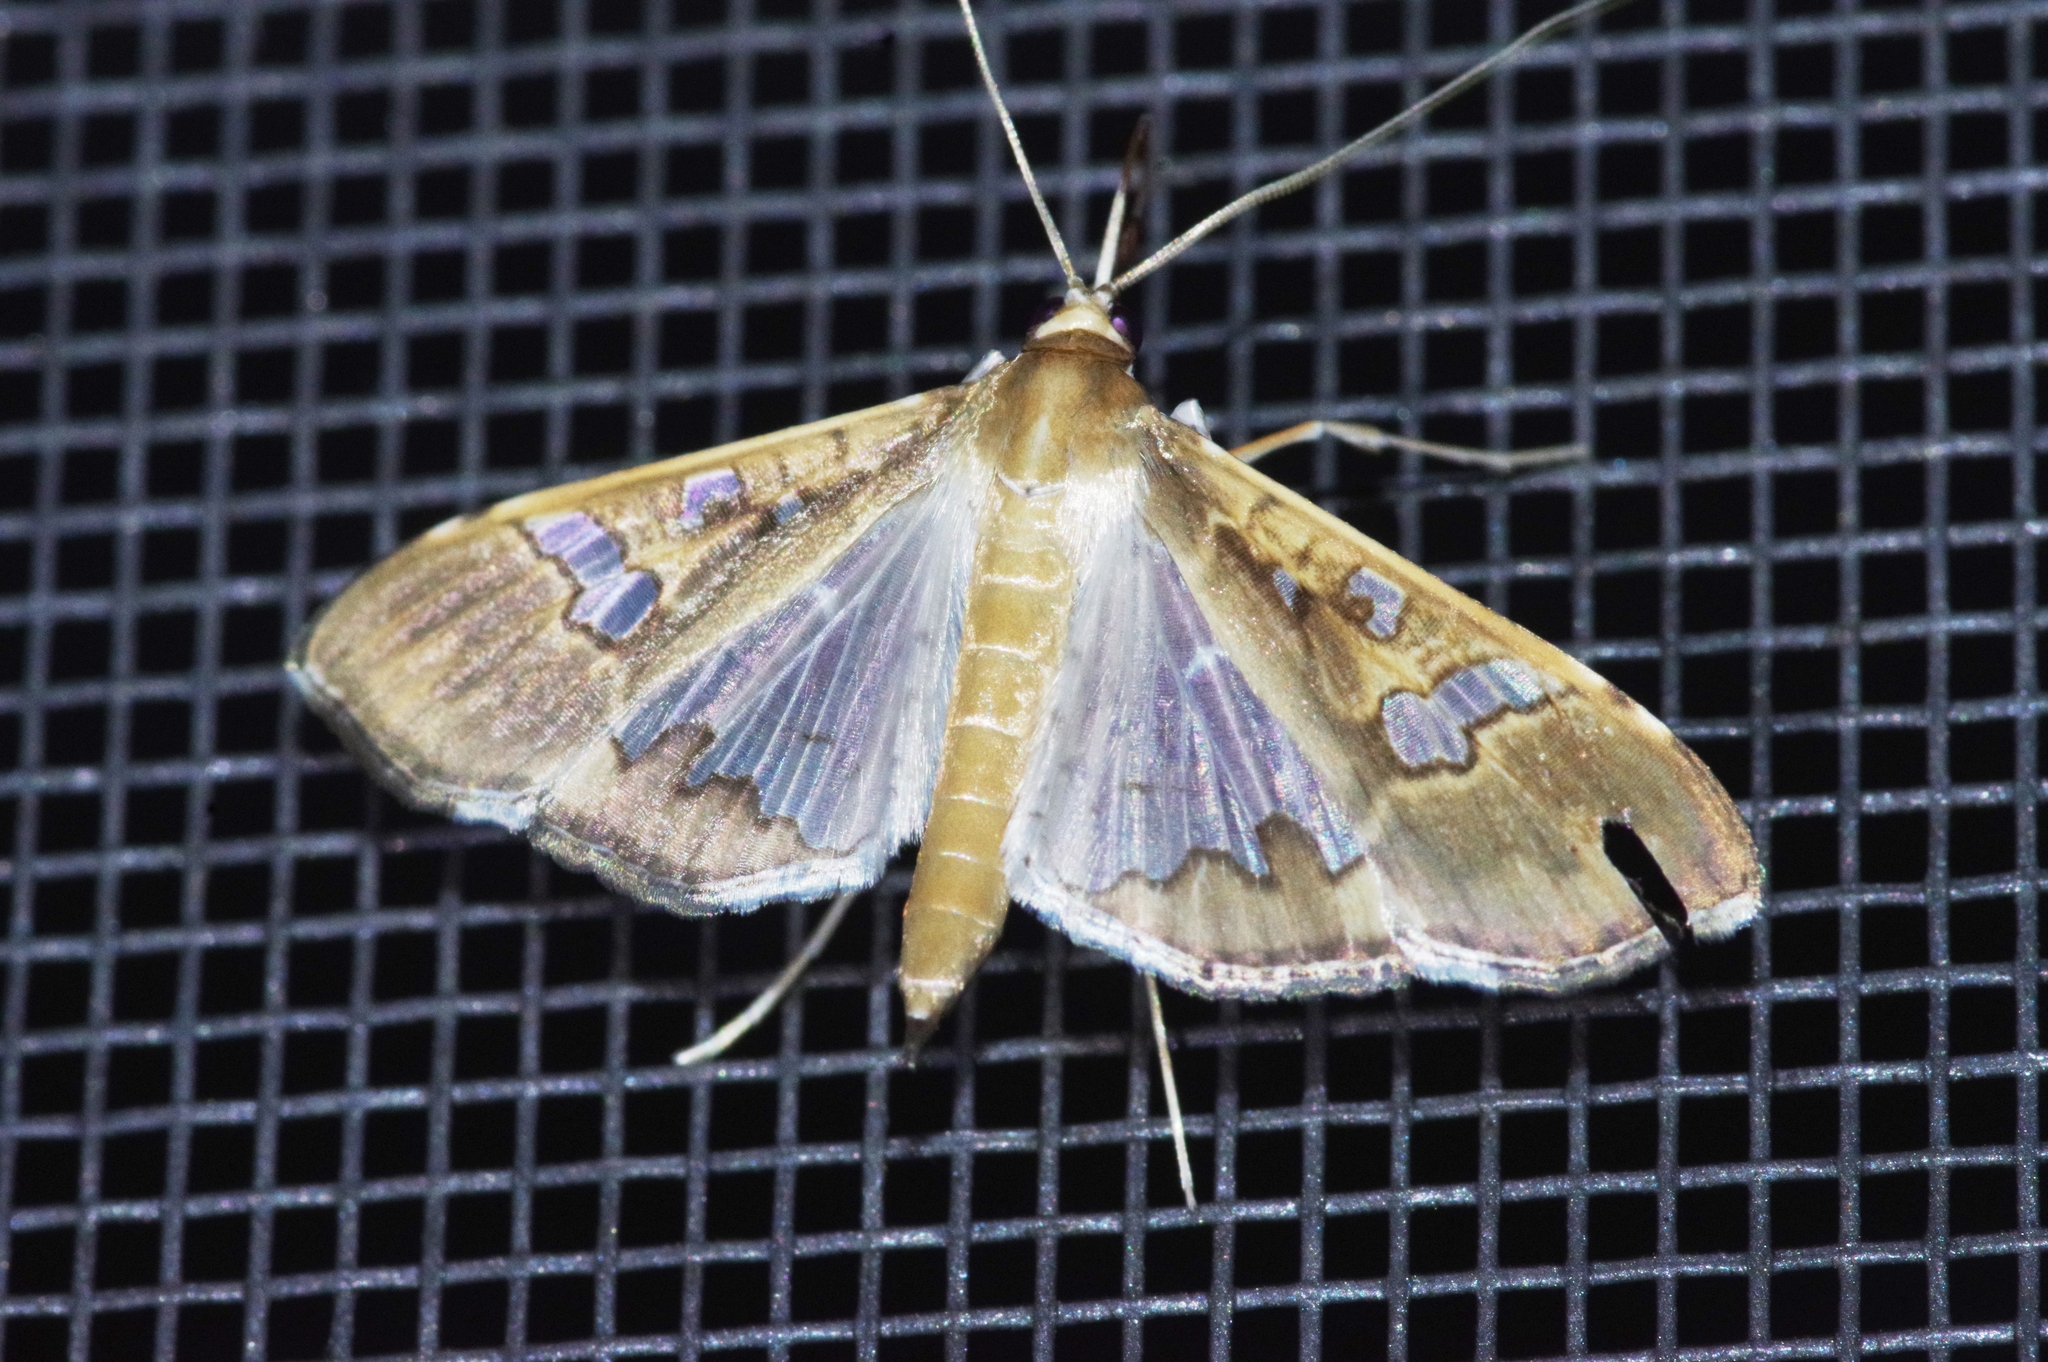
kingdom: Animalia
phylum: Arthropoda
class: Insecta
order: Lepidoptera
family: Crambidae
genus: Maruca
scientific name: Maruca vitrata
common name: Maruca pod borer
